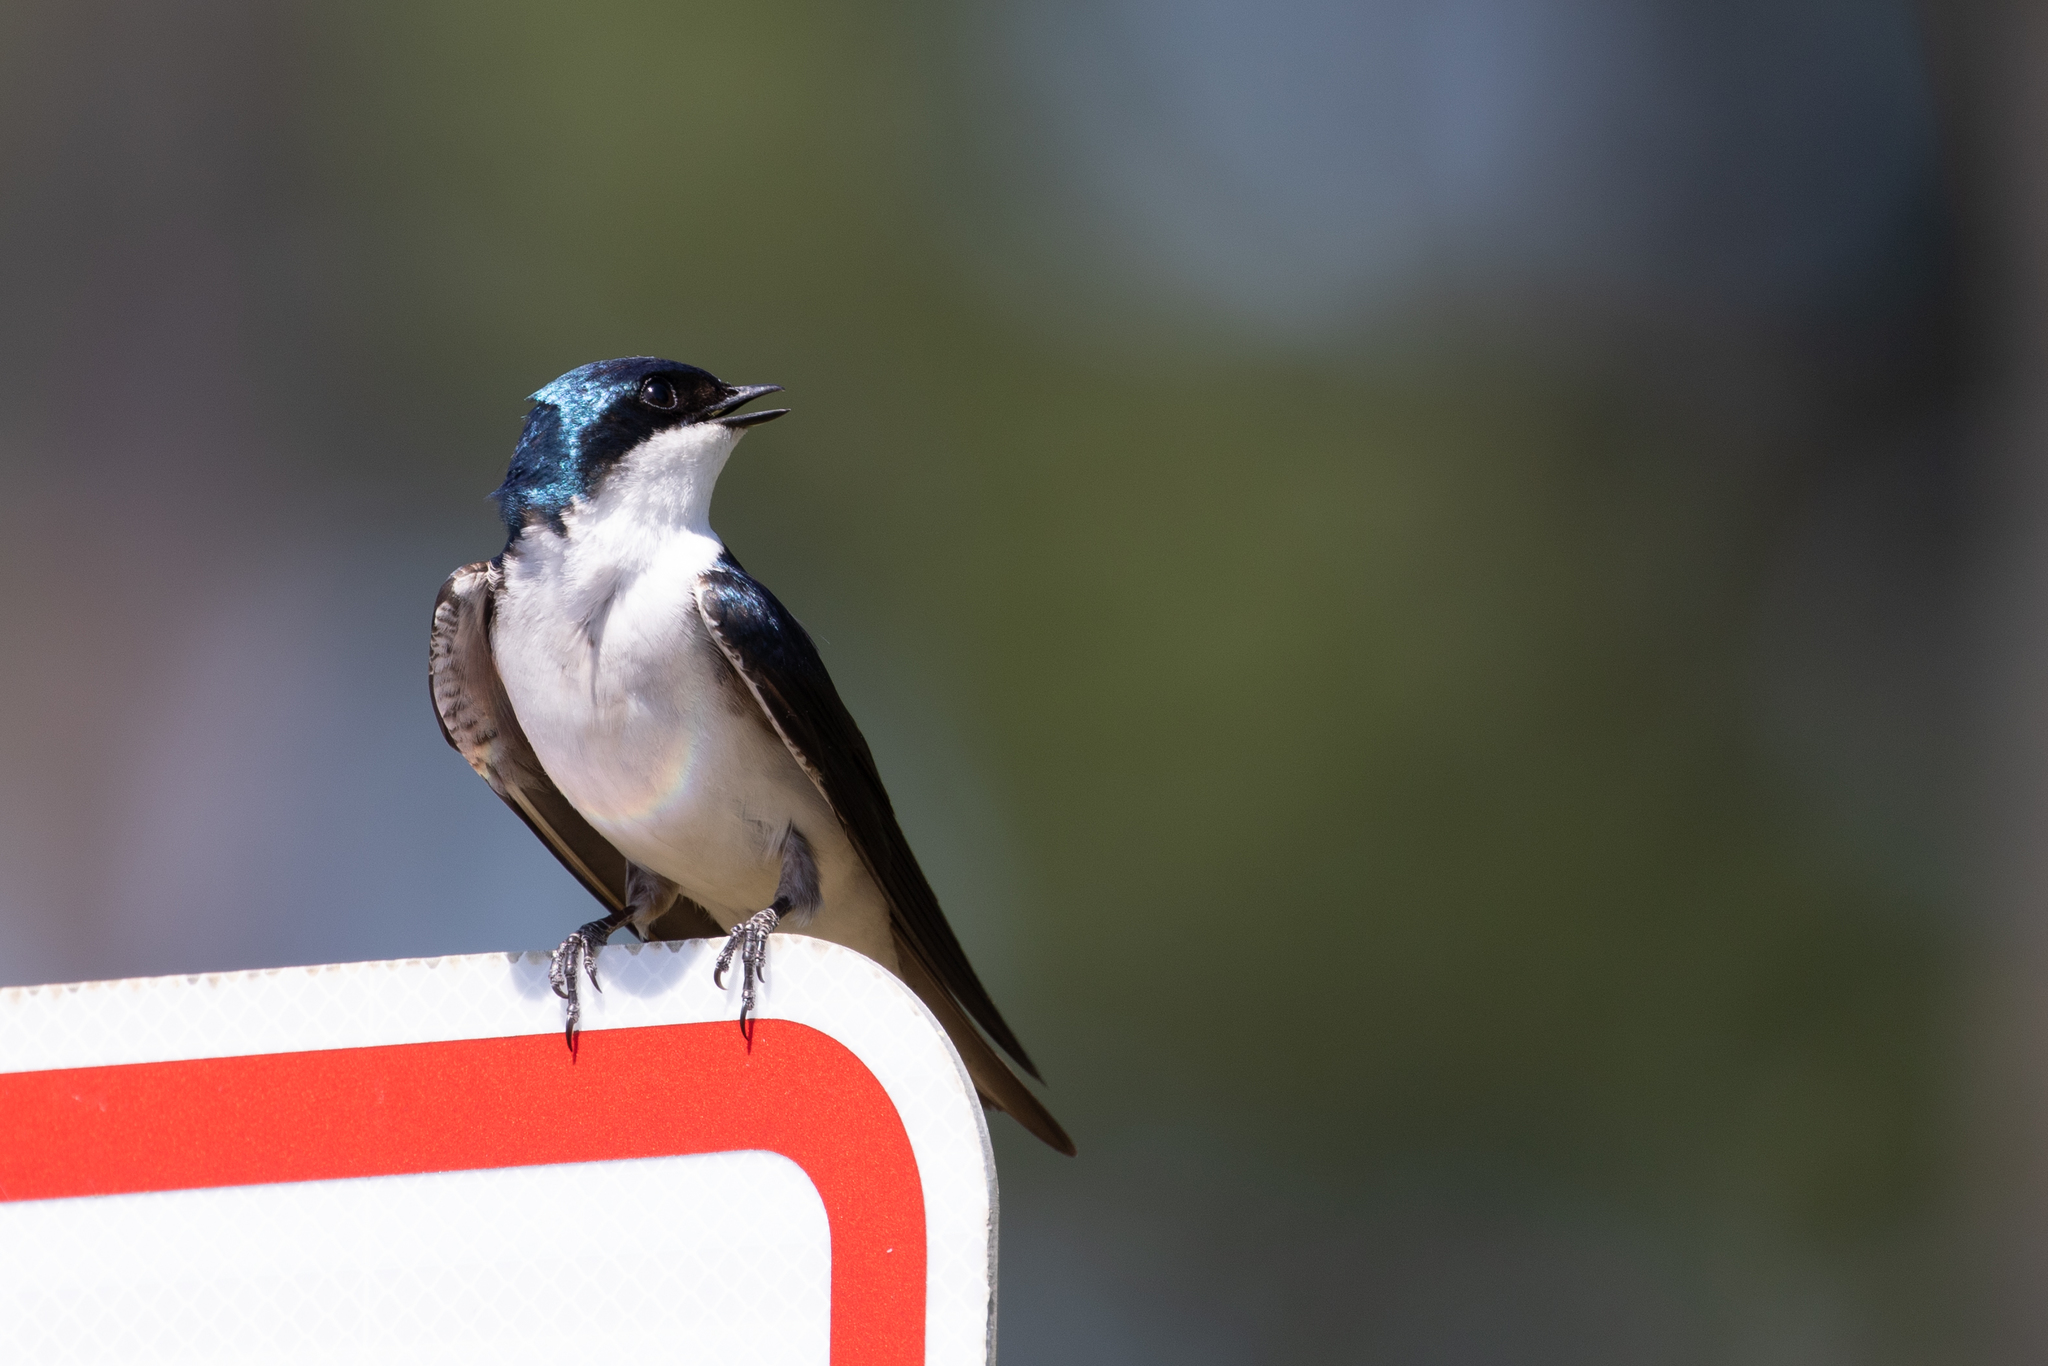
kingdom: Animalia
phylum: Chordata
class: Aves
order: Passeriformes
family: Hirundinidae
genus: Tachycineta
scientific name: Tachycineta bicolor
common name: Tree swallow
